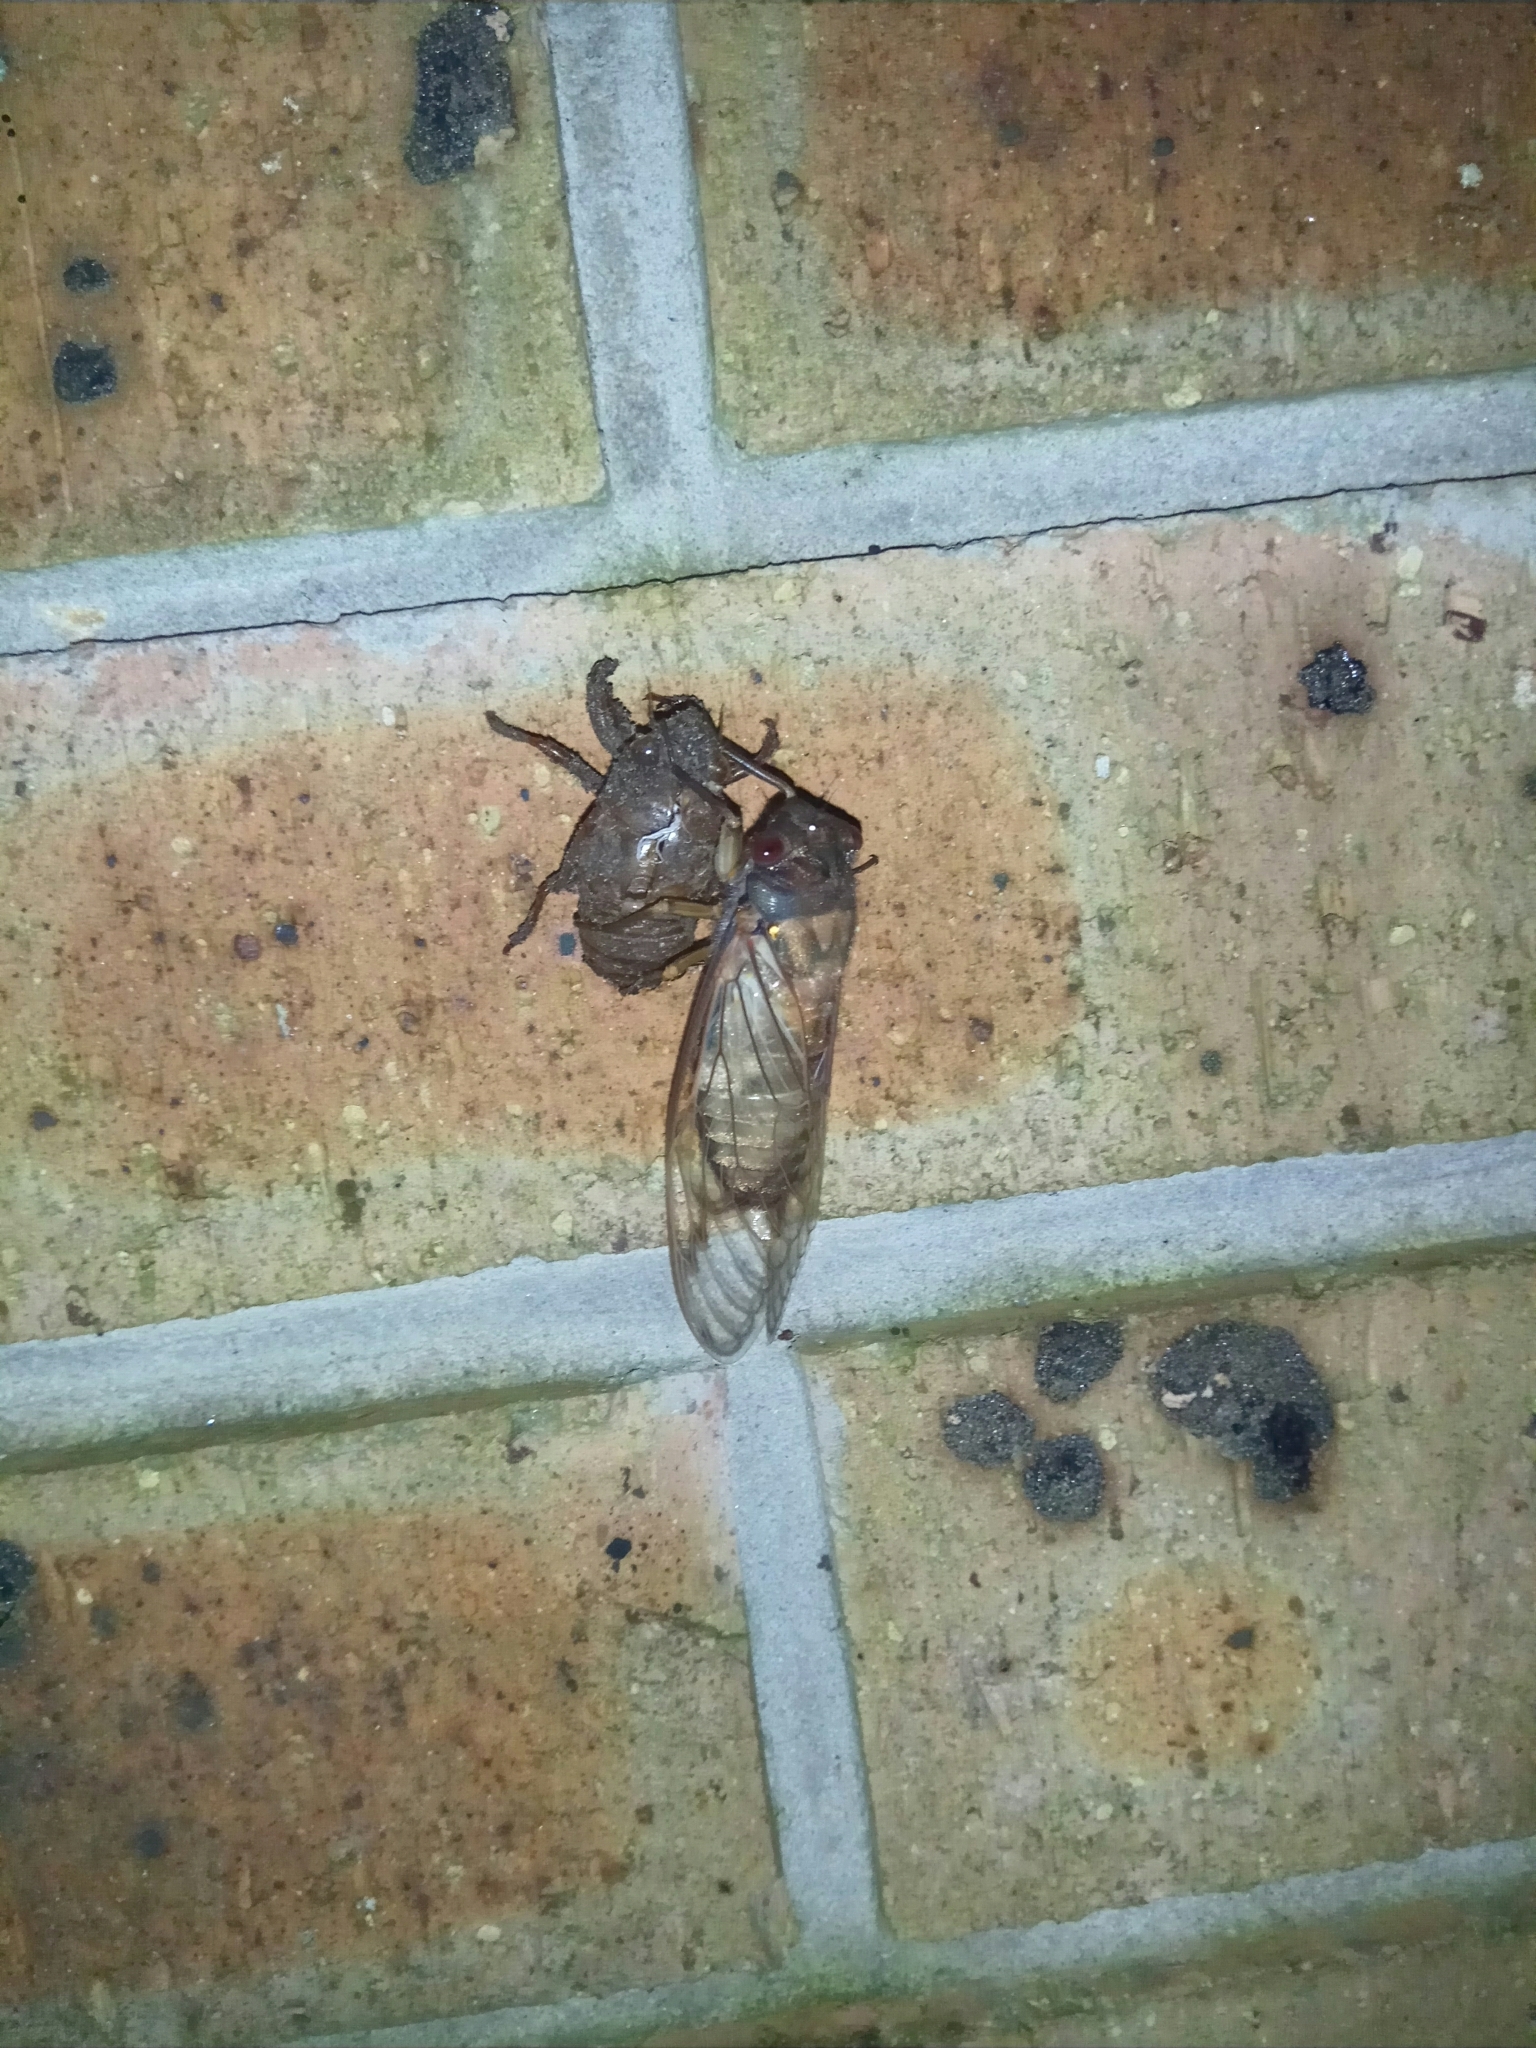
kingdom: Animalia
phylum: Arthropoda
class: Insecta
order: Hemiptera
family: Cicadidae
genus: Psaltoda
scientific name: Psaltoda moerens
